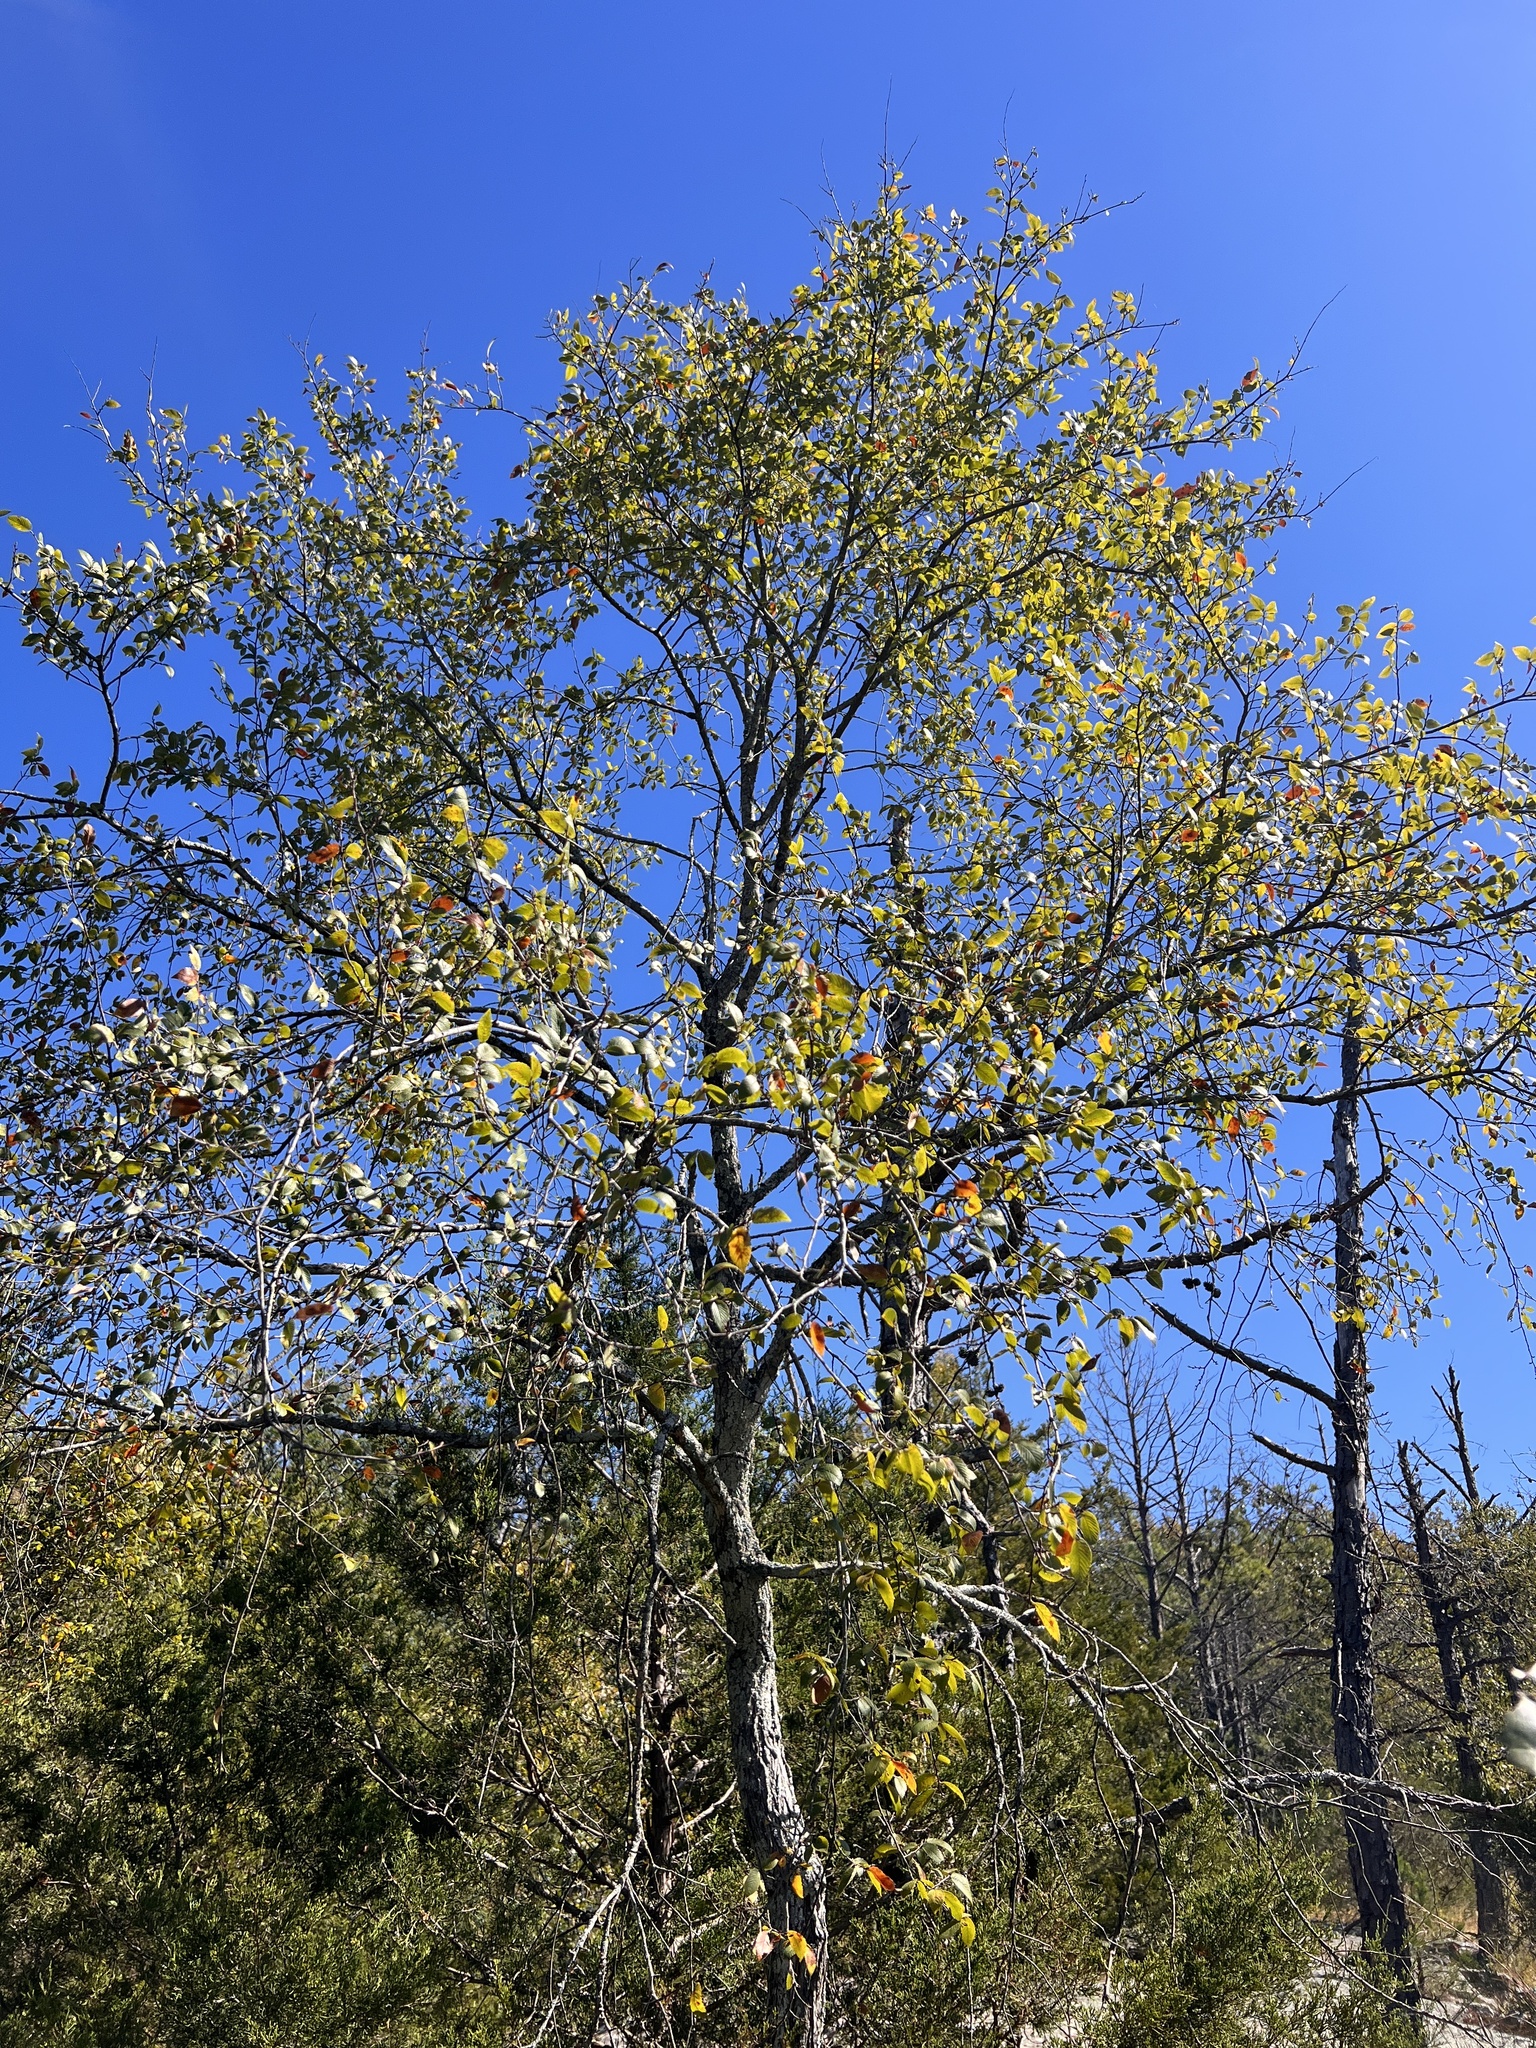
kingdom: Plantae
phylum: Tracheophyta
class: Magnoliopsida
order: Rosales
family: Ulmaceae
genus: Ulmus
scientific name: Ulmus alata
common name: Winged elm
